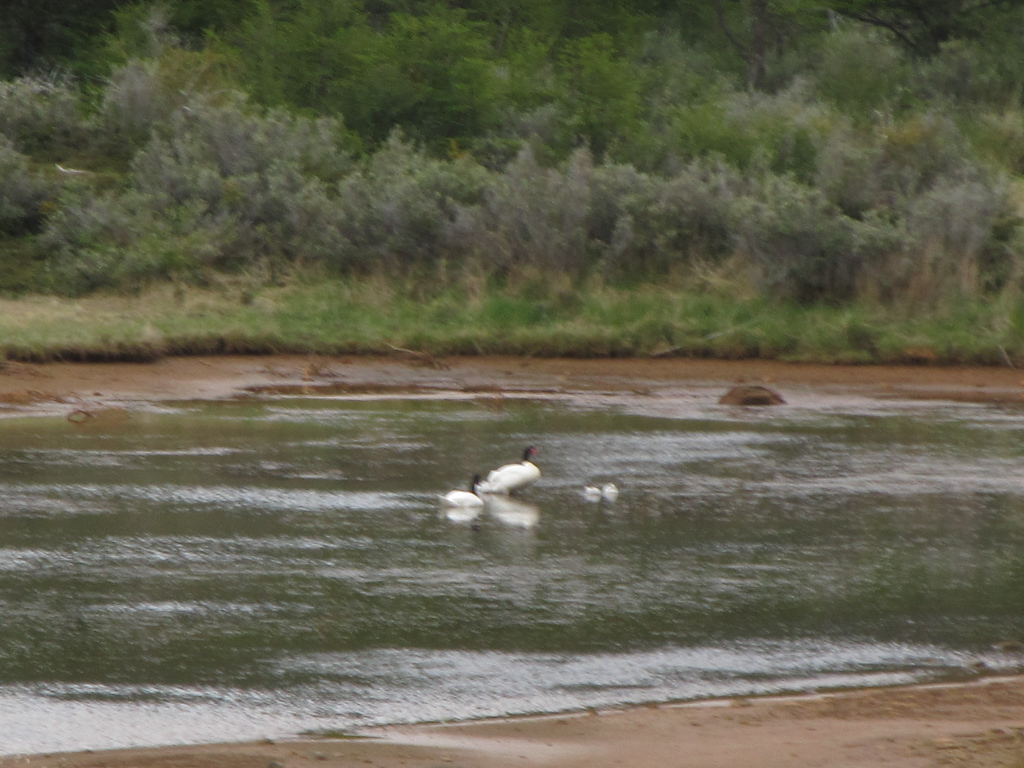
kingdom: Animalia
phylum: Chordata
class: Aves
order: Anseriformes
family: Anatidae
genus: Cygnus
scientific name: Cygnus melancoryphus
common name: Black-necked swan
